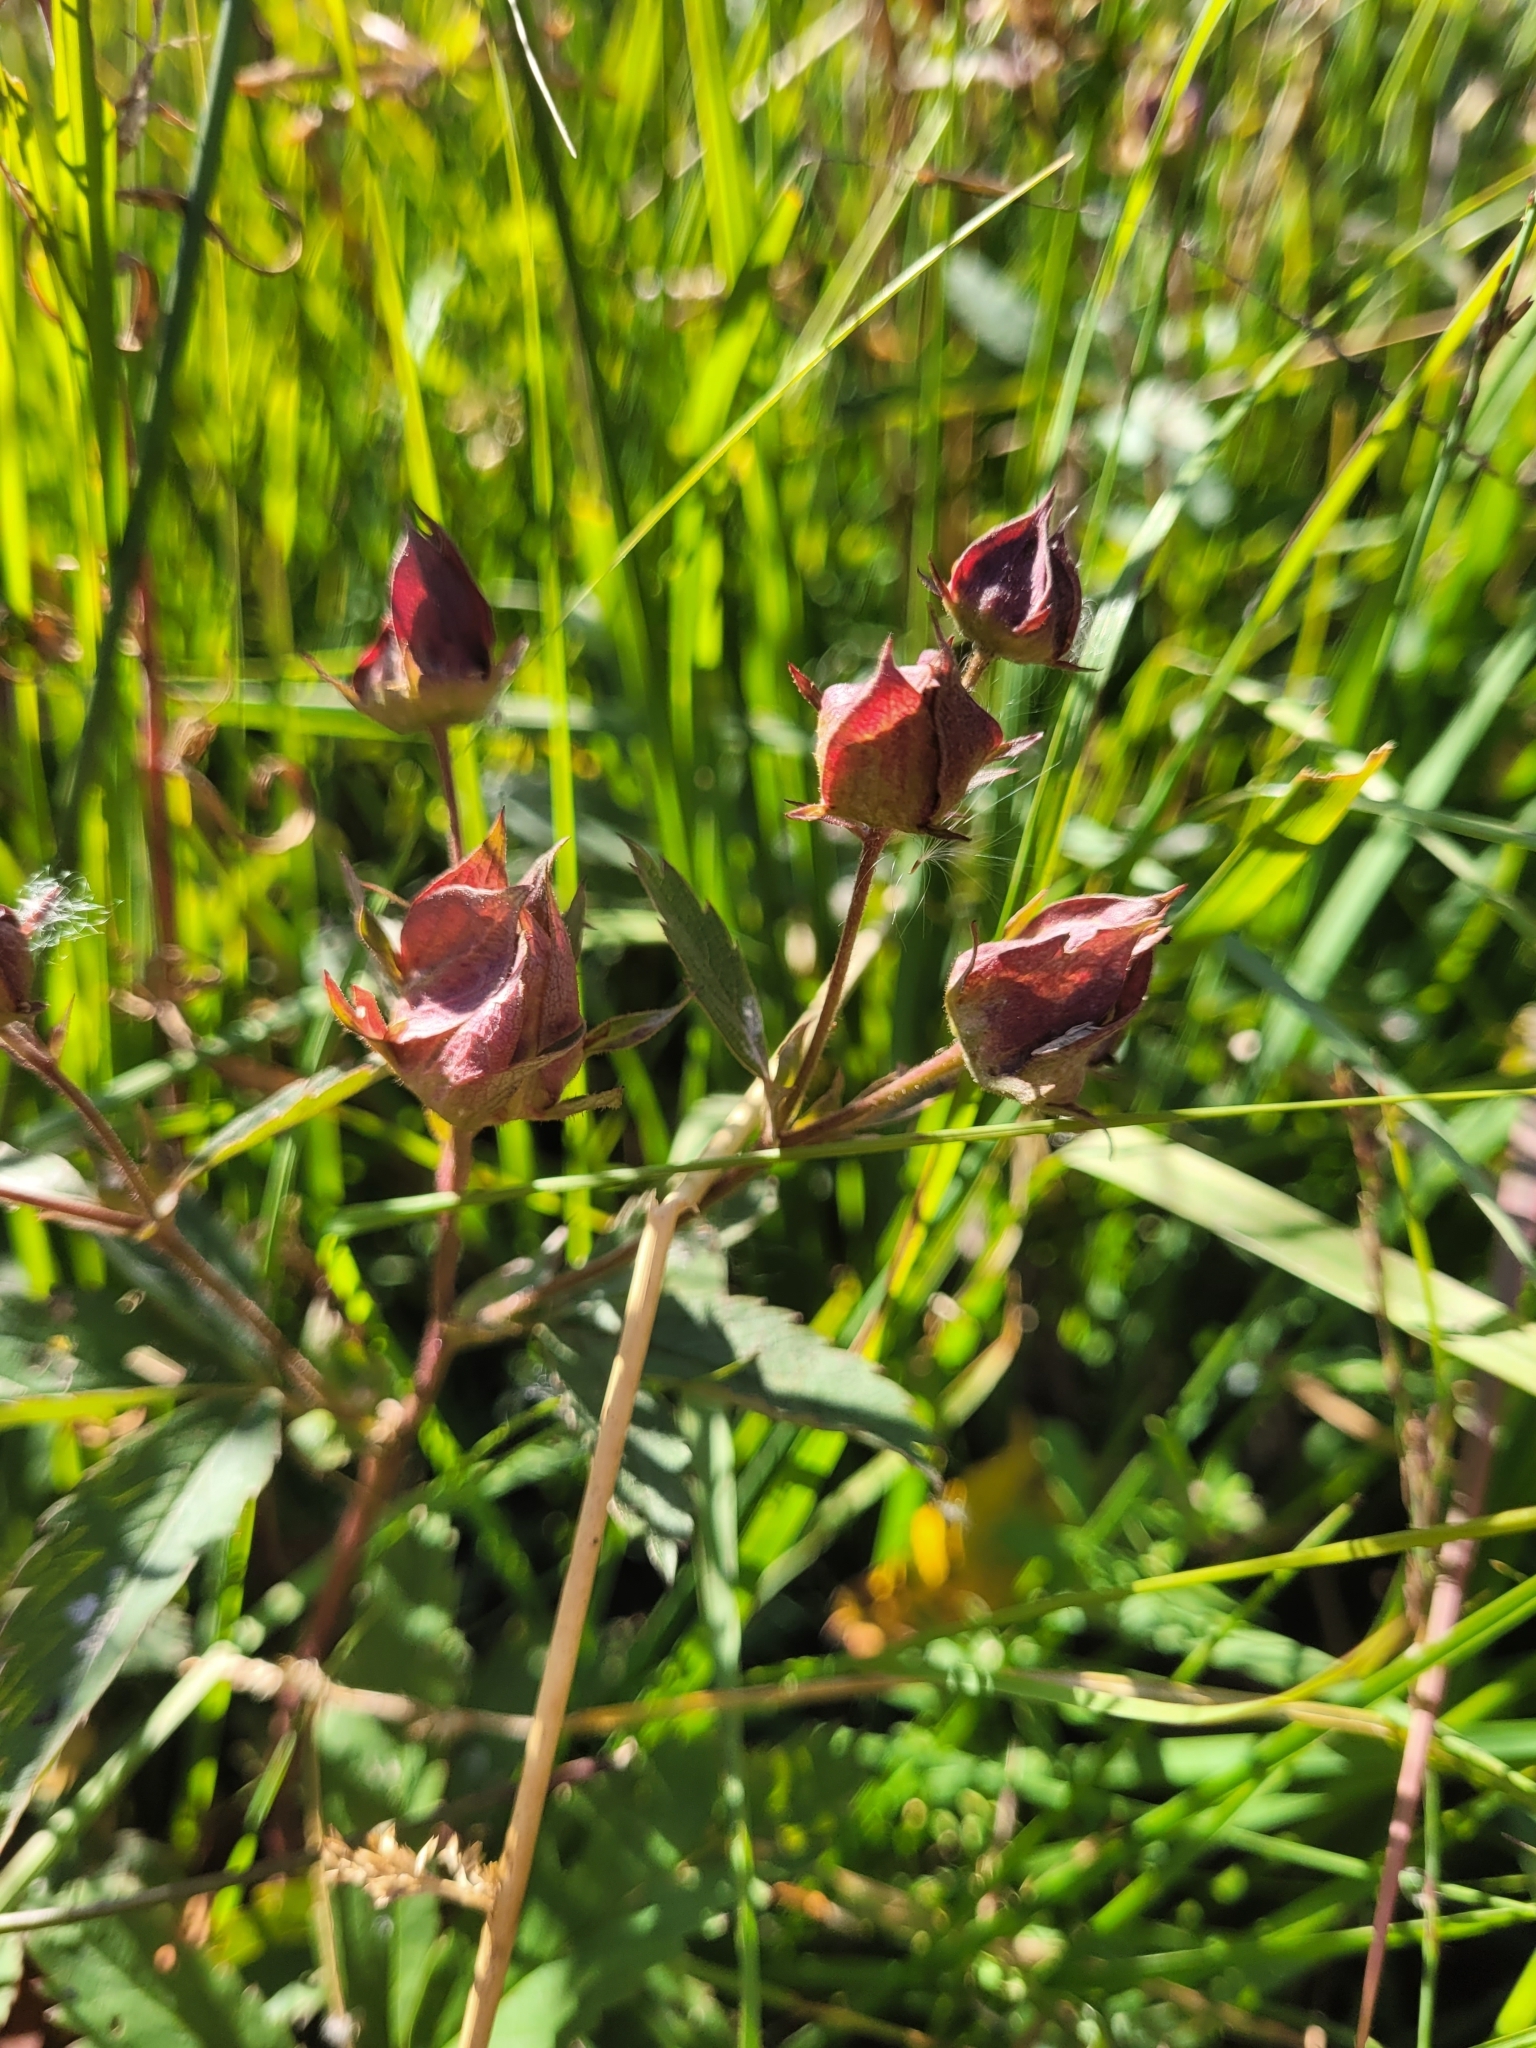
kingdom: Plantae
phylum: Tracheophyta
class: Magnoliopsida
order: Rosales
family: Rosaceae
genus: Comarum
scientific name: Comarum palustre
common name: Marsh cinquefoil
